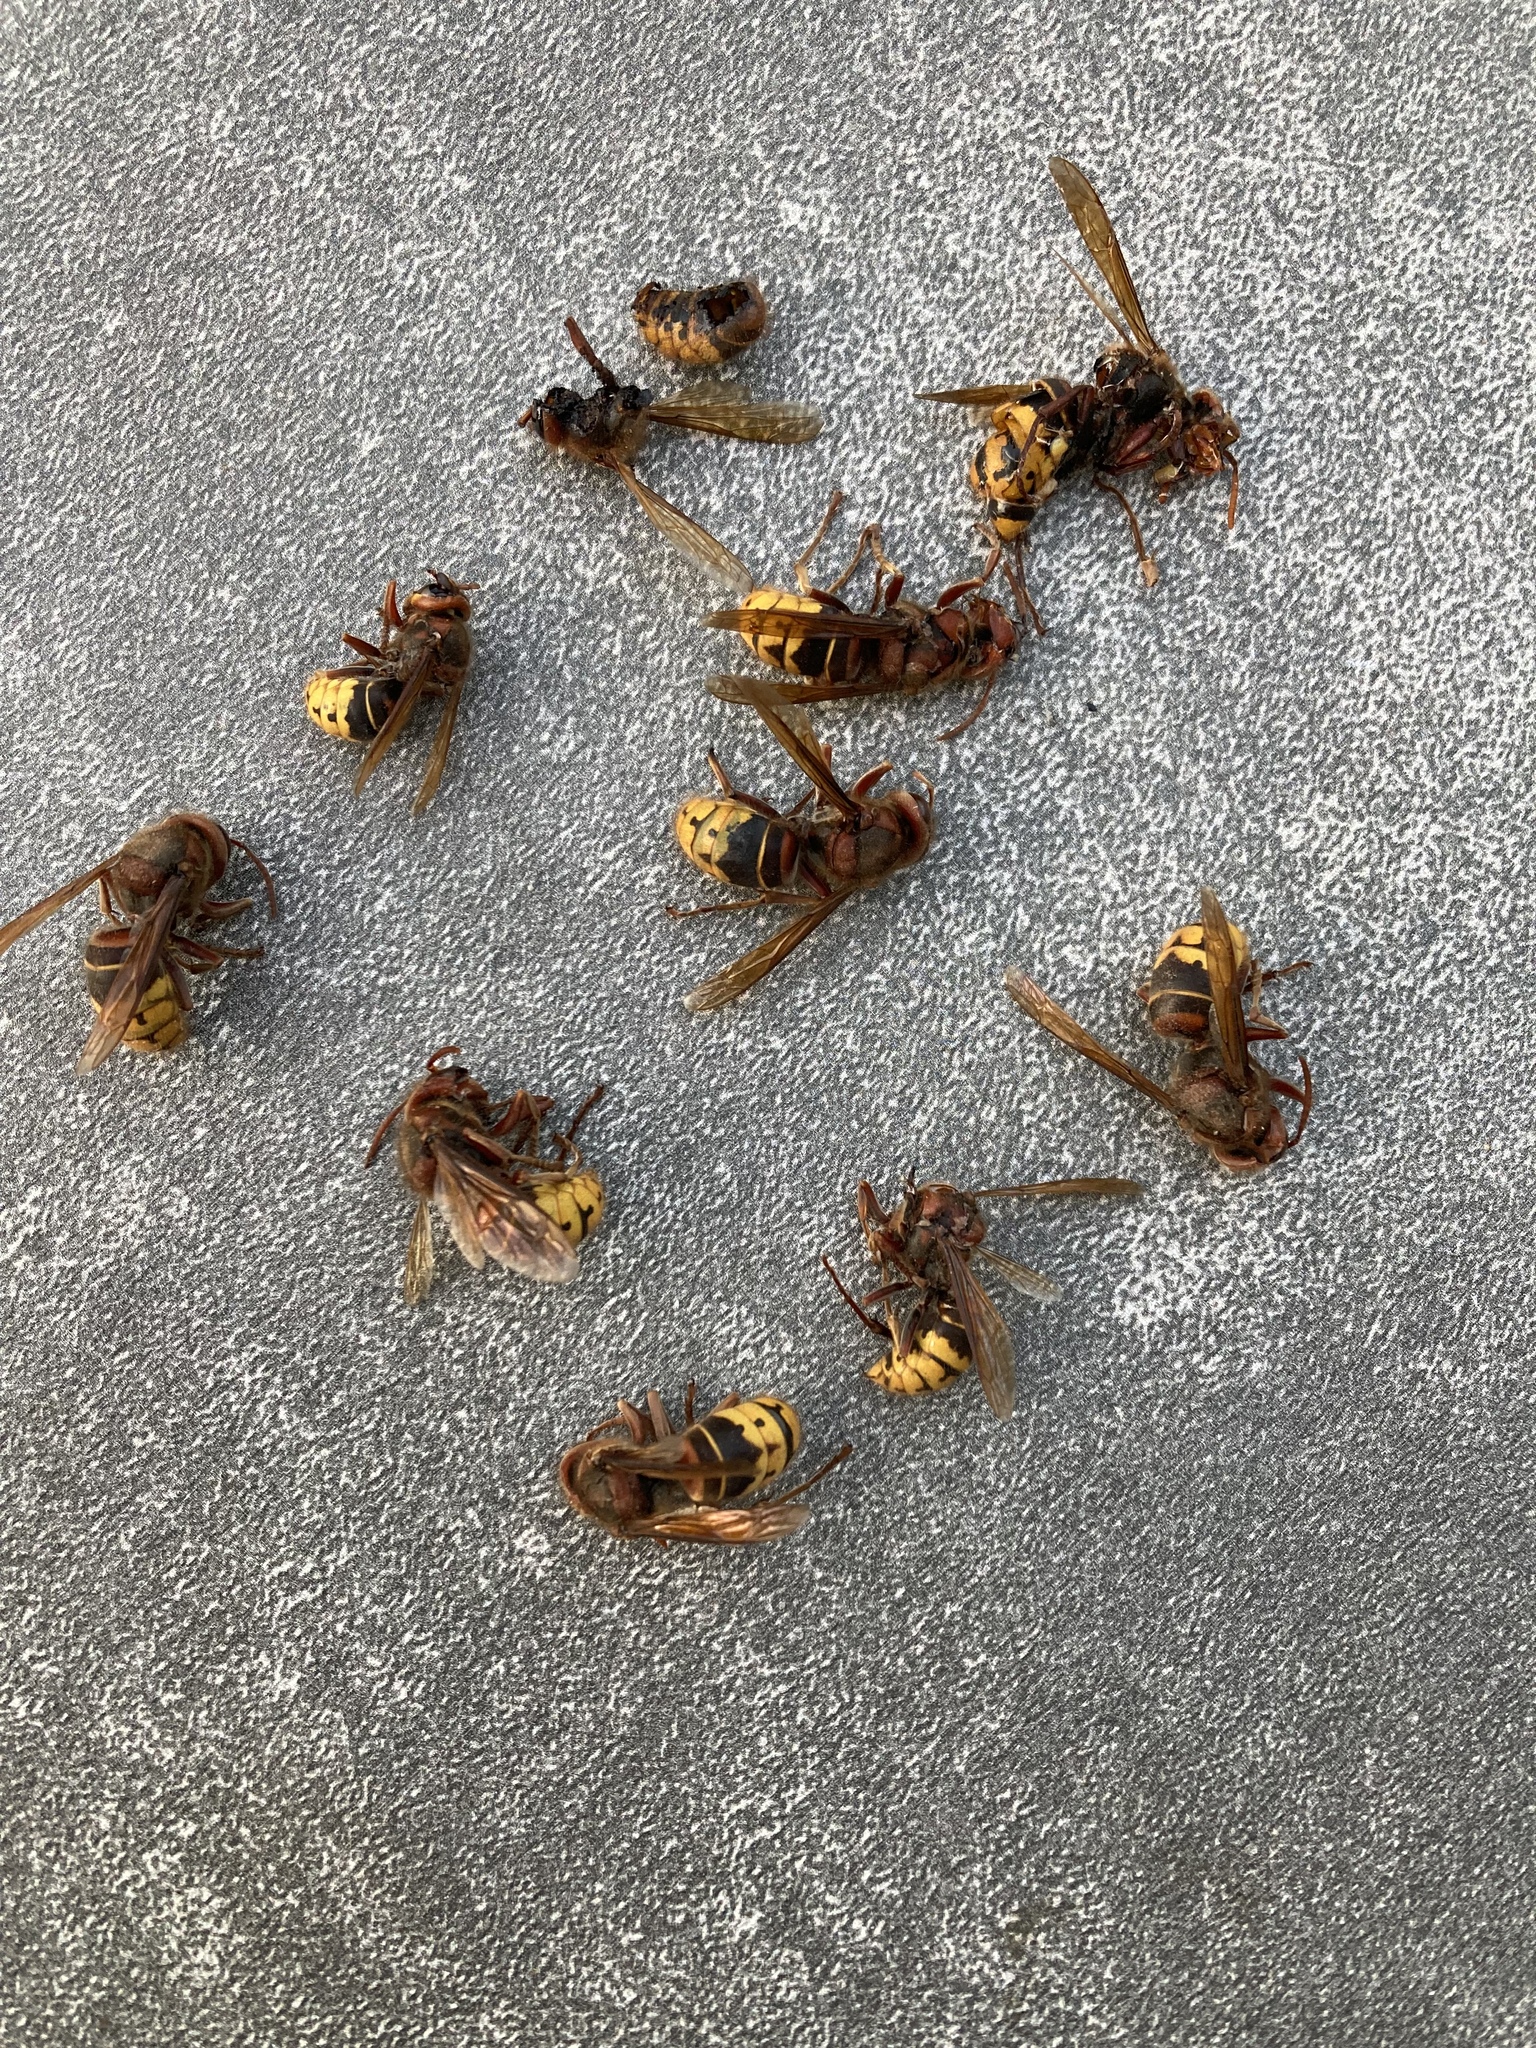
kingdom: Animalia
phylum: Arthropoda
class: Insecta
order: Hymenoptera
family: Vespidae
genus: Vespa
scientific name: Vespa crabro
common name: Hornet
